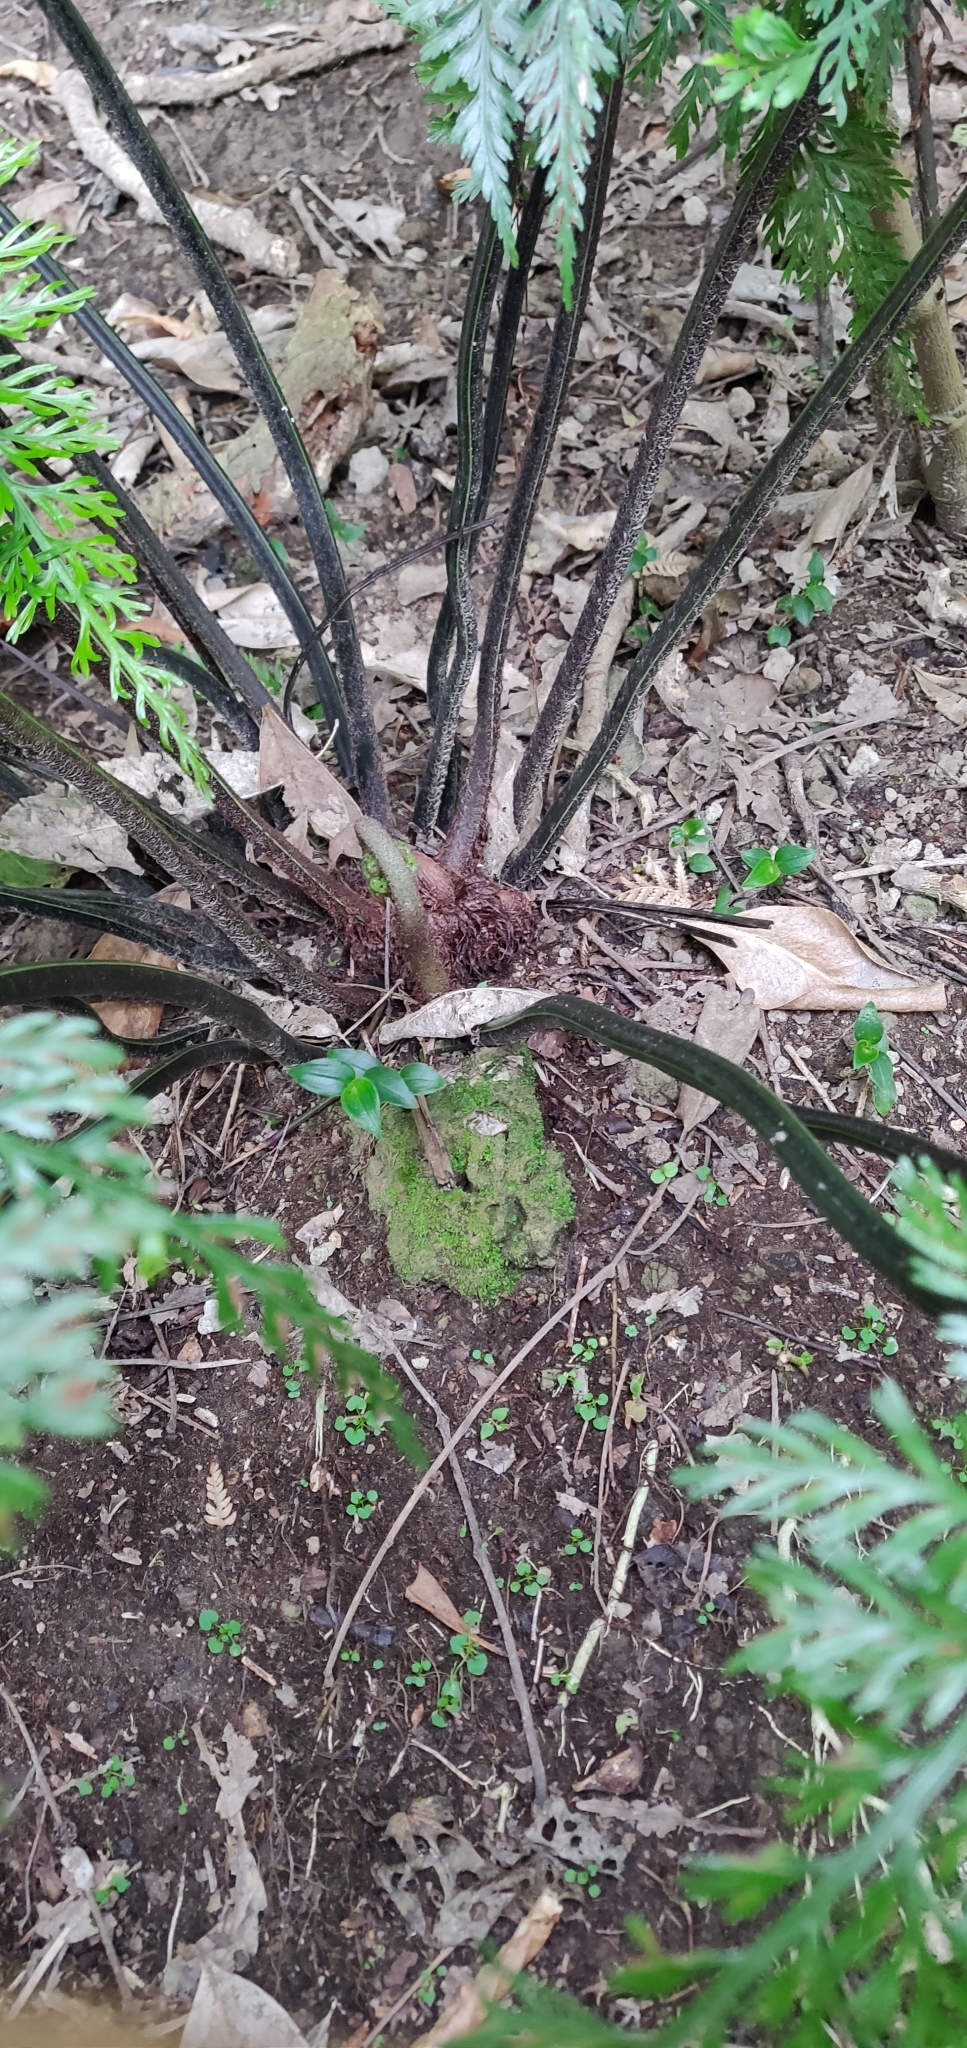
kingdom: Plantae
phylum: Tracheophyta
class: Polypodiopsida
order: Polypodiales
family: Aspleniaceae
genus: Asplenium
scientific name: Asplenium lucrosum
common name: False hen-and-chickens fern
